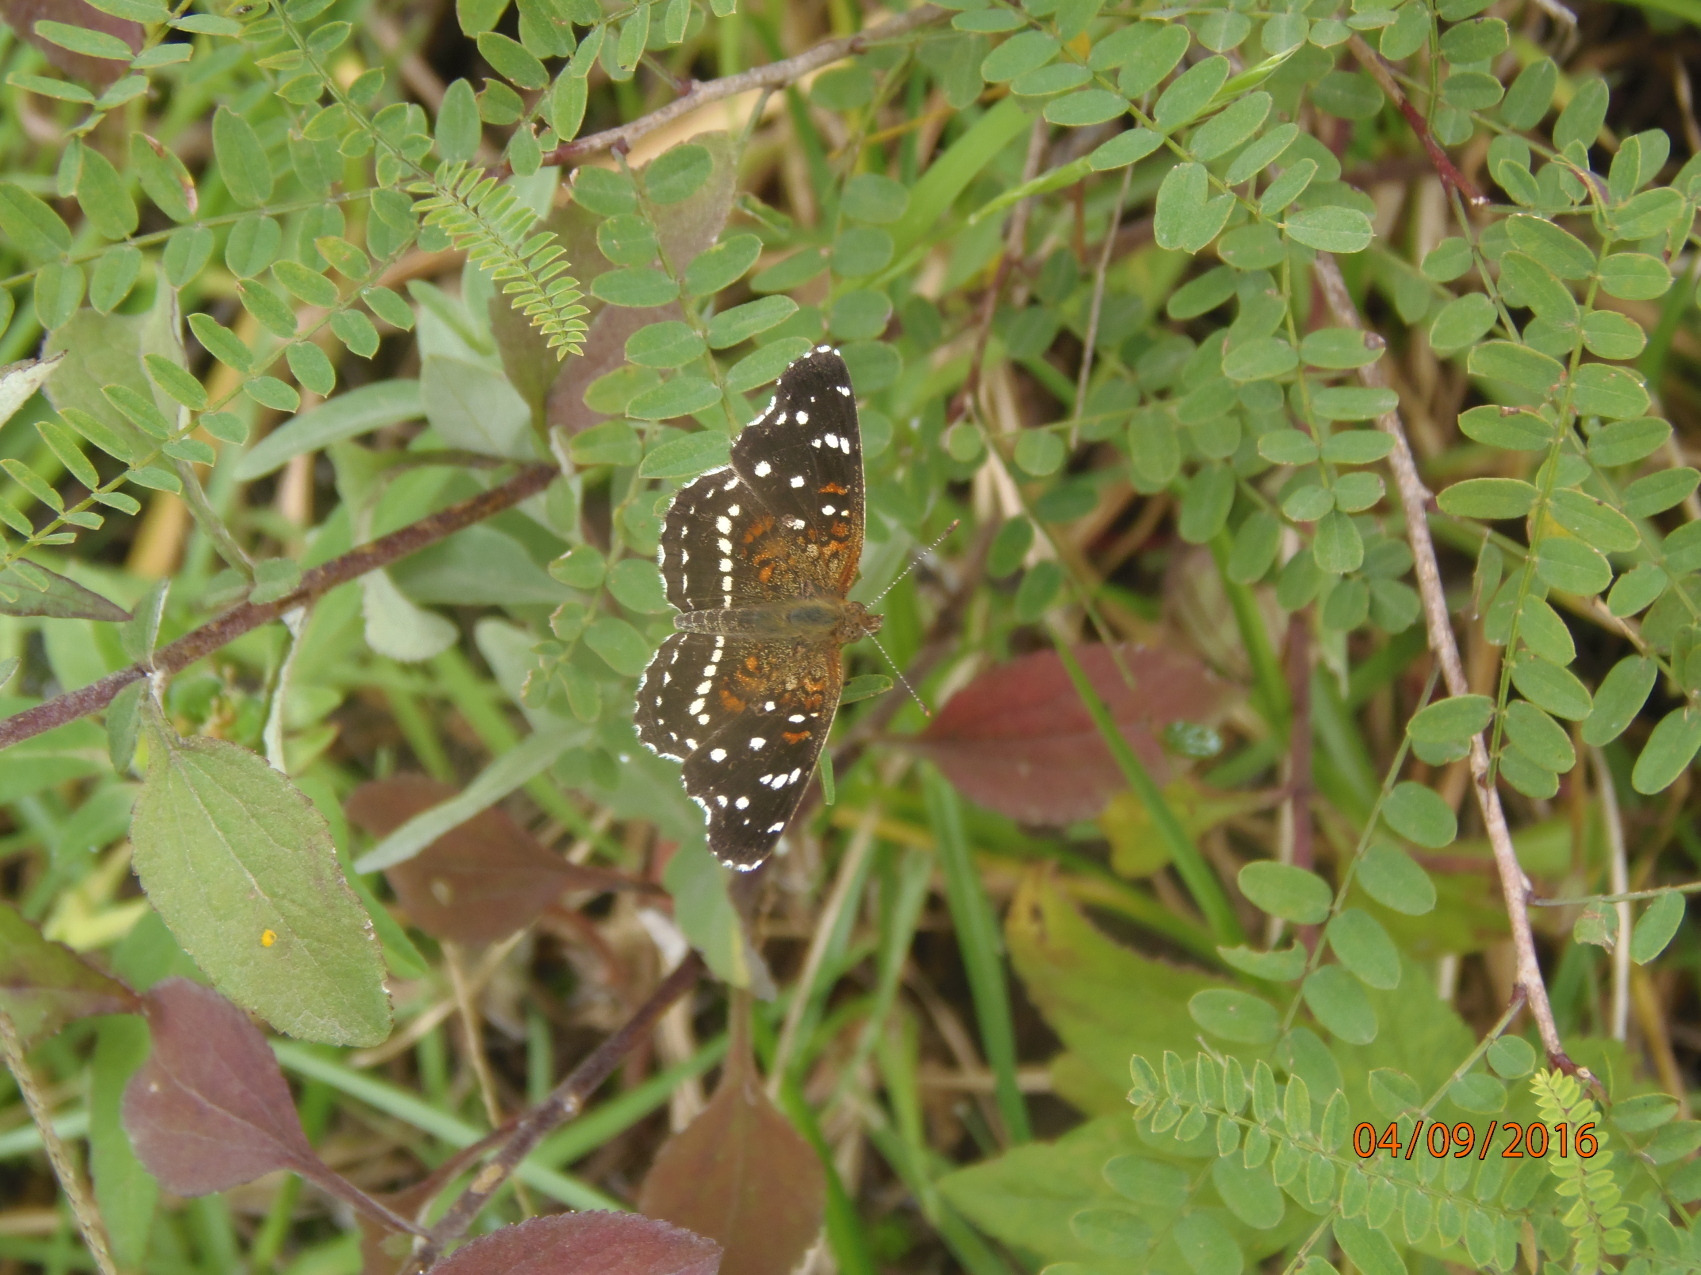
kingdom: Animalia
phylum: Arthropoda
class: Insecta
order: Lepidoptera
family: Nymphalidae
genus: Anthanassa
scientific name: Anthanassa texana
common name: Texan crescent
